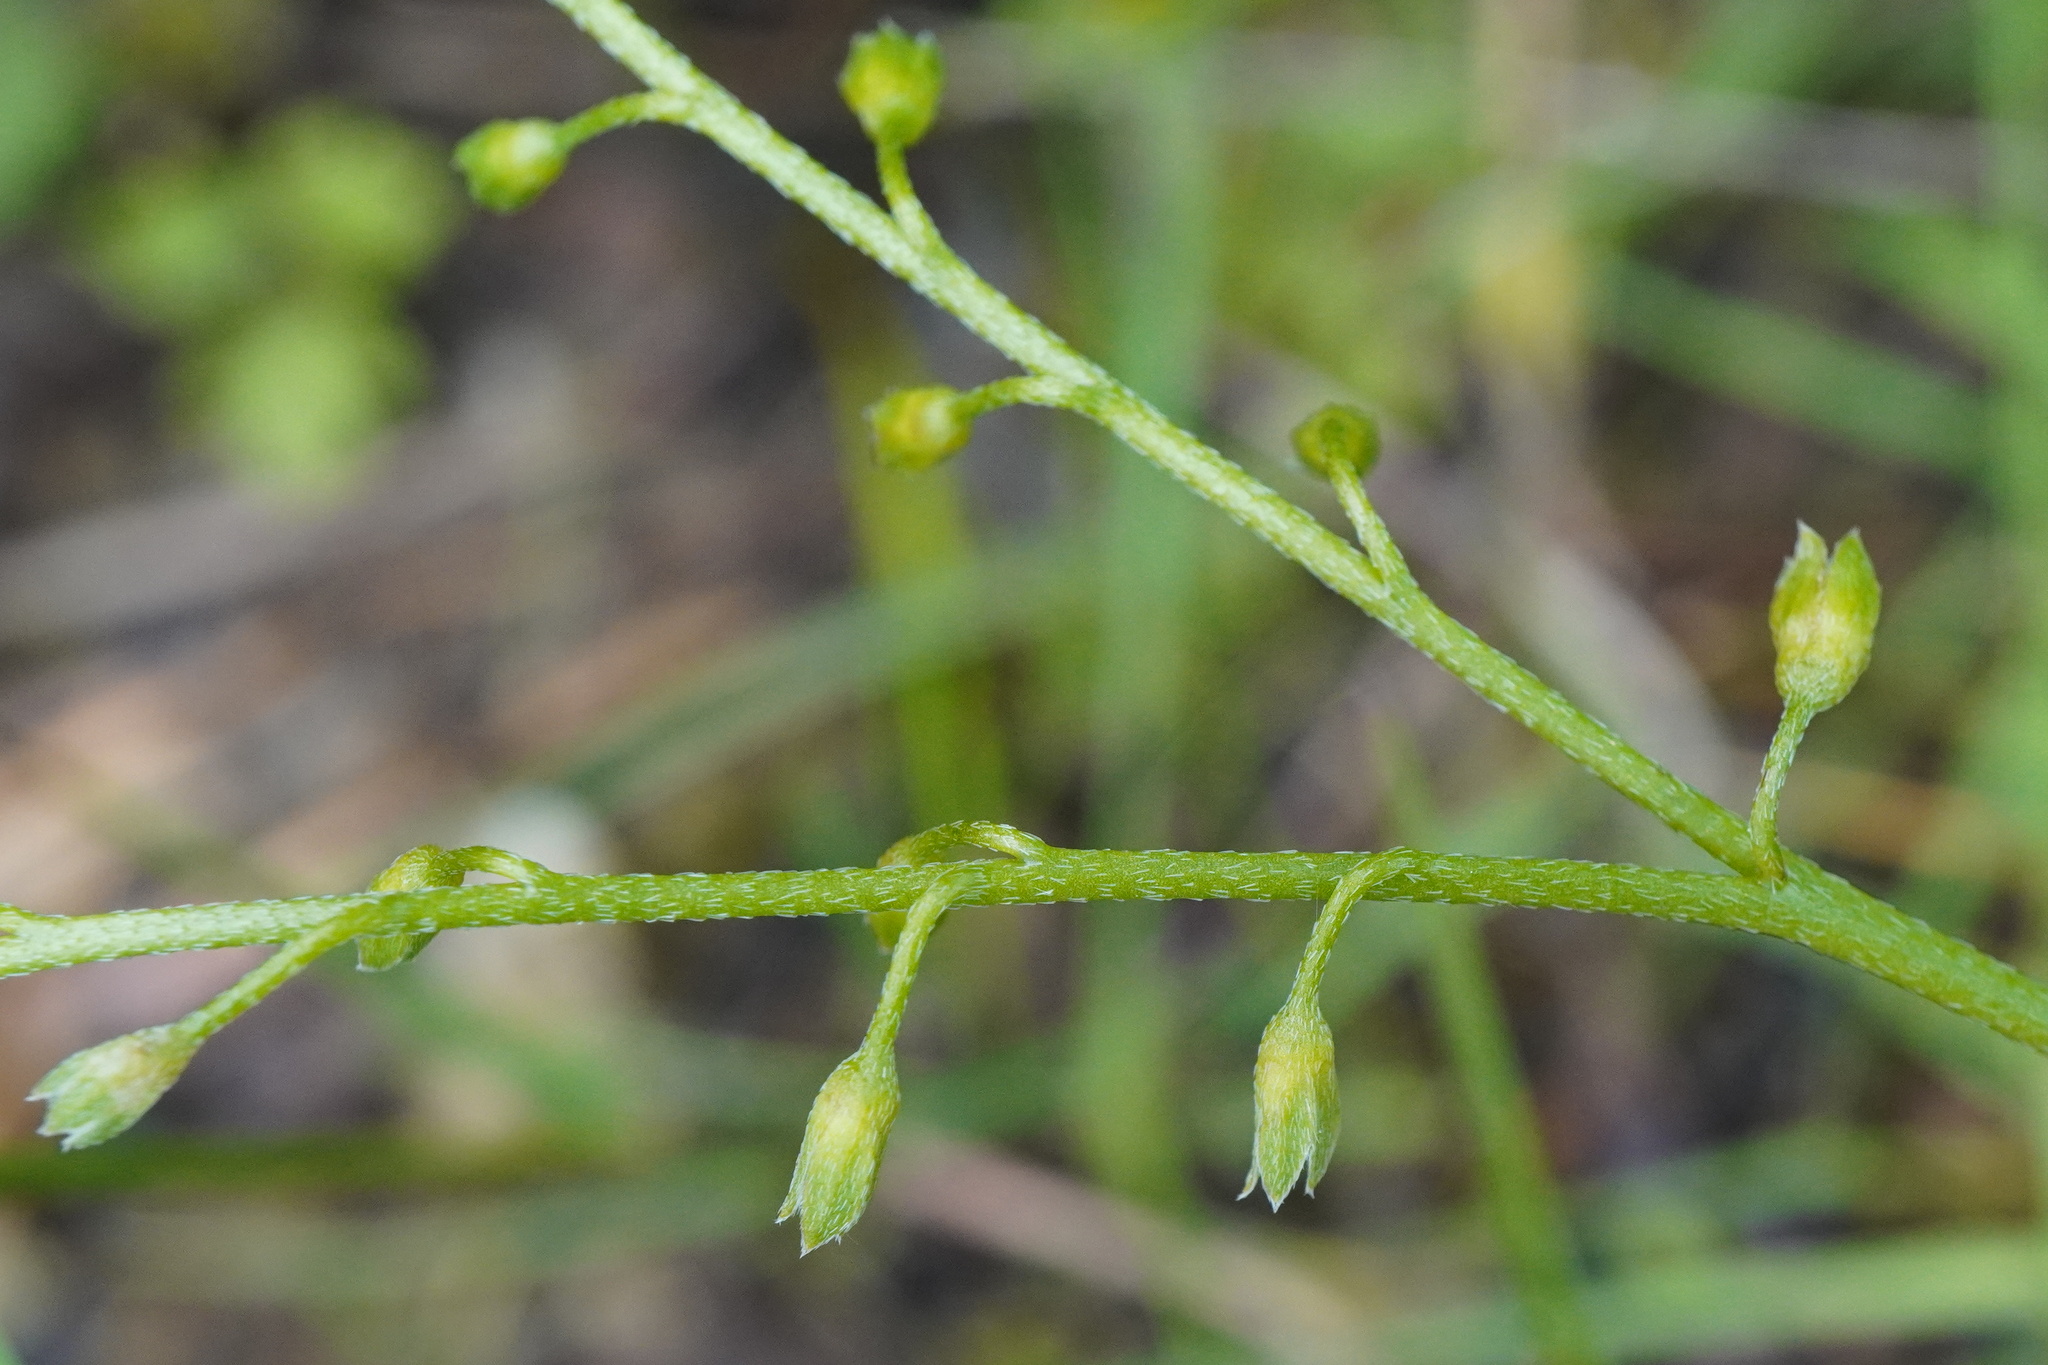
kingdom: Plantae
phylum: Tracheophyta
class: Magnoliopsida
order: Boraginales
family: Boraginaceae
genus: Myosotis
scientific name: Myosotis scorpioides
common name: Water forget-me-not
